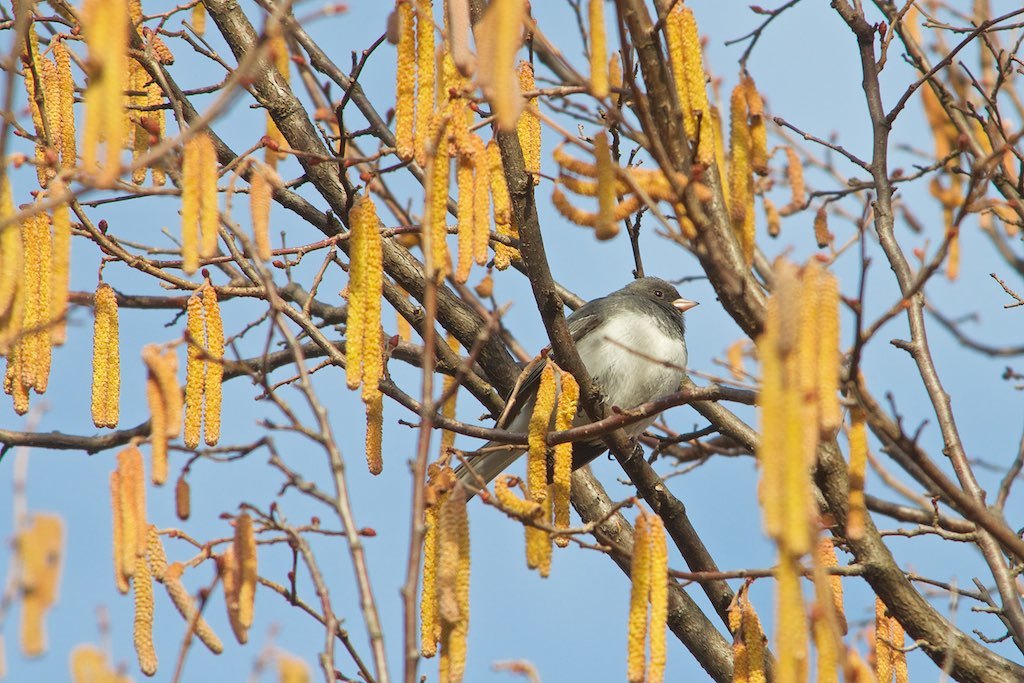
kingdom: Animalia
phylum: Chordata
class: Aves
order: Passeriformes
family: Passerellidae
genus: Junco
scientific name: Junco hyemalis
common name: Dark-eyed junco
